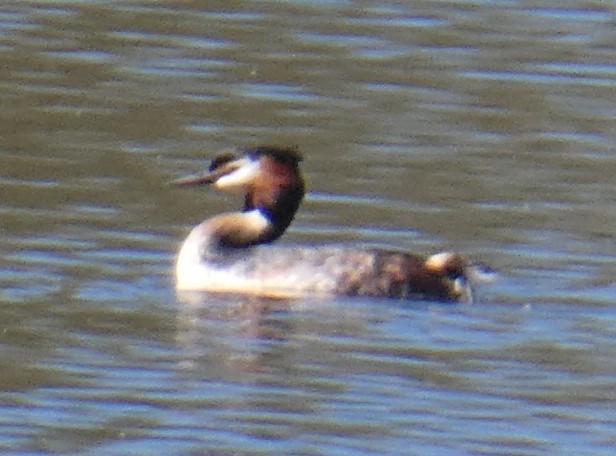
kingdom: Animalia
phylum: Chordata
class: Aves
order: Podicipediformes
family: Podicipedidae
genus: Podiceps
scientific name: Podiceps cristatus
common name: Great crested grebe
